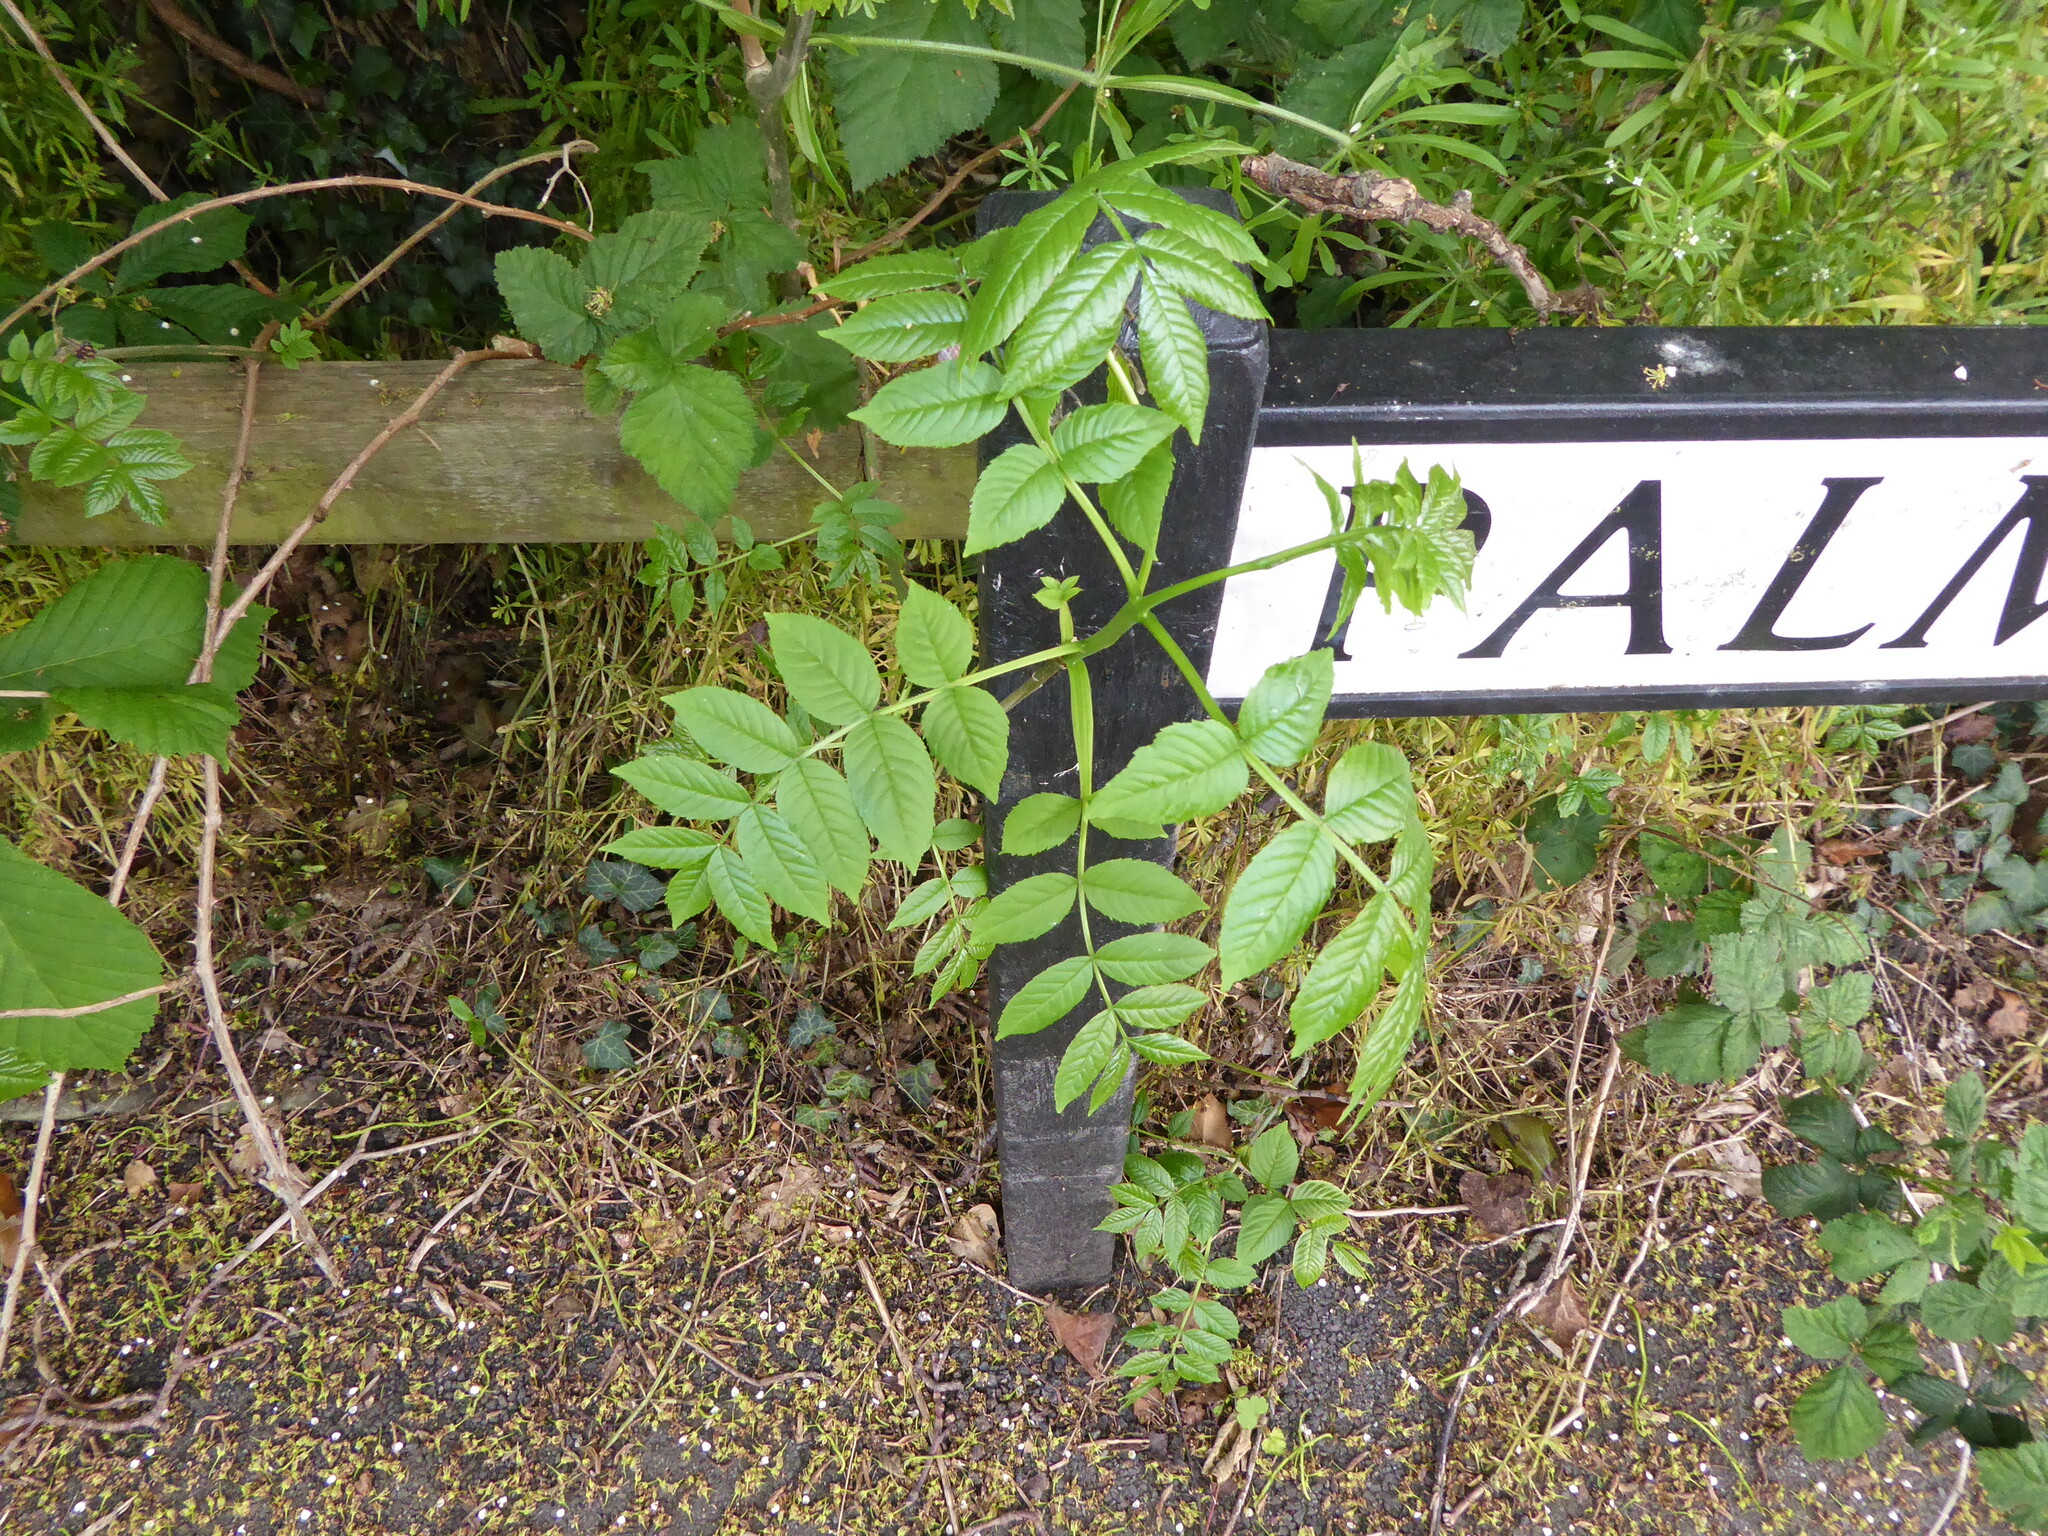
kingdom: Plantae
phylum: Tracheophyta
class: Magnoliopsida
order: Lamiales
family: Oleaceae
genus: Fraxinus
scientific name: Fraxinus excelsior
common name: European ash
